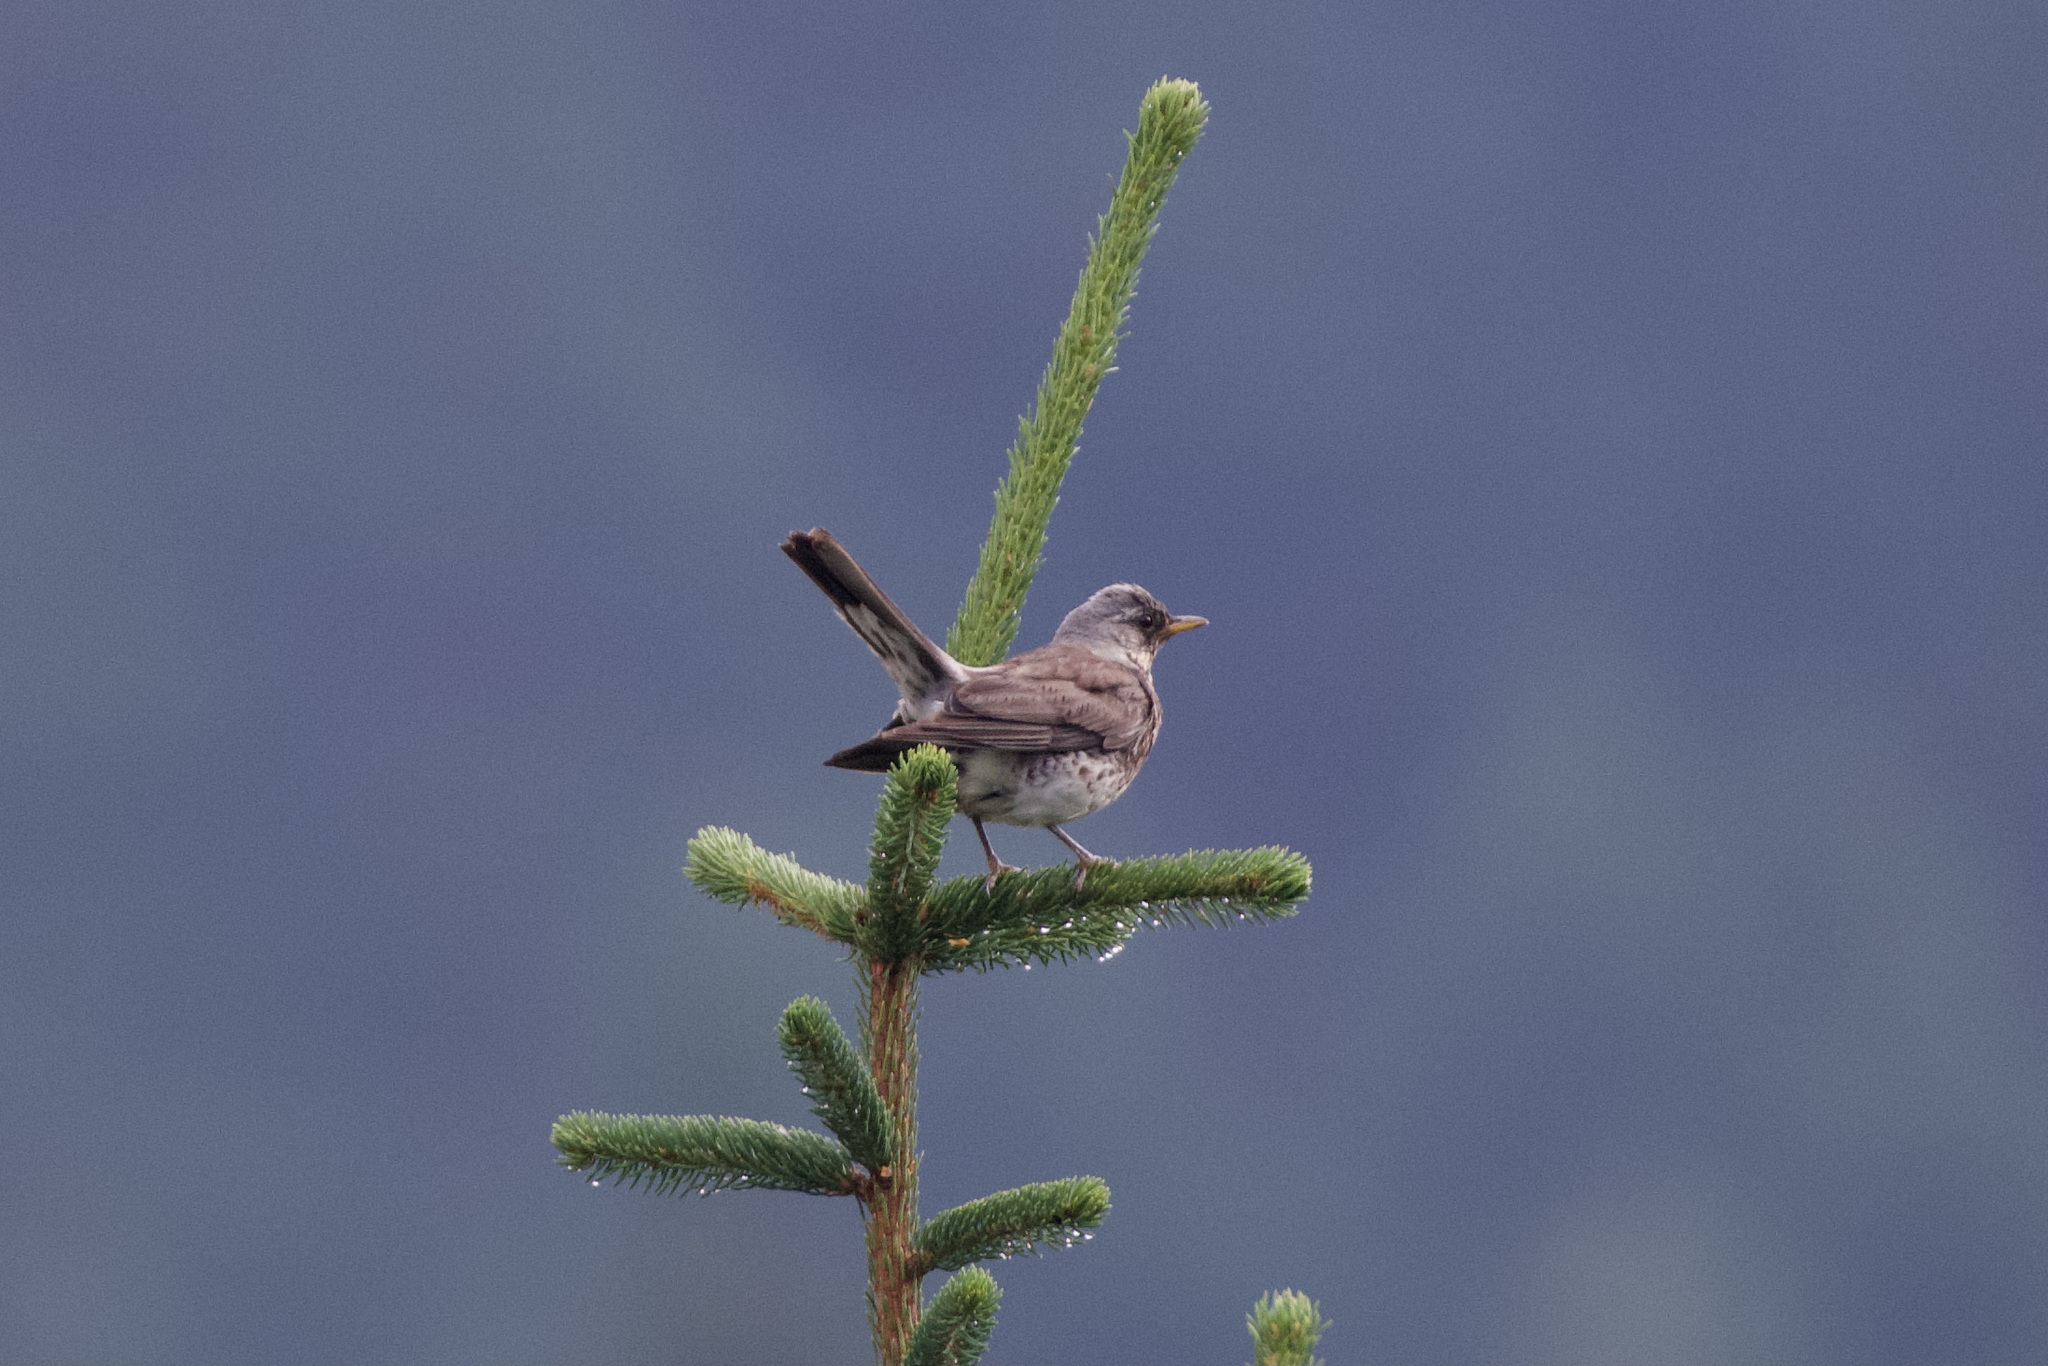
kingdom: Animalia
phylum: Chordata
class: Aves
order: Passeriformes
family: Turdidae
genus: Turdus
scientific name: Turdus pilaris
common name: Fieldfare
